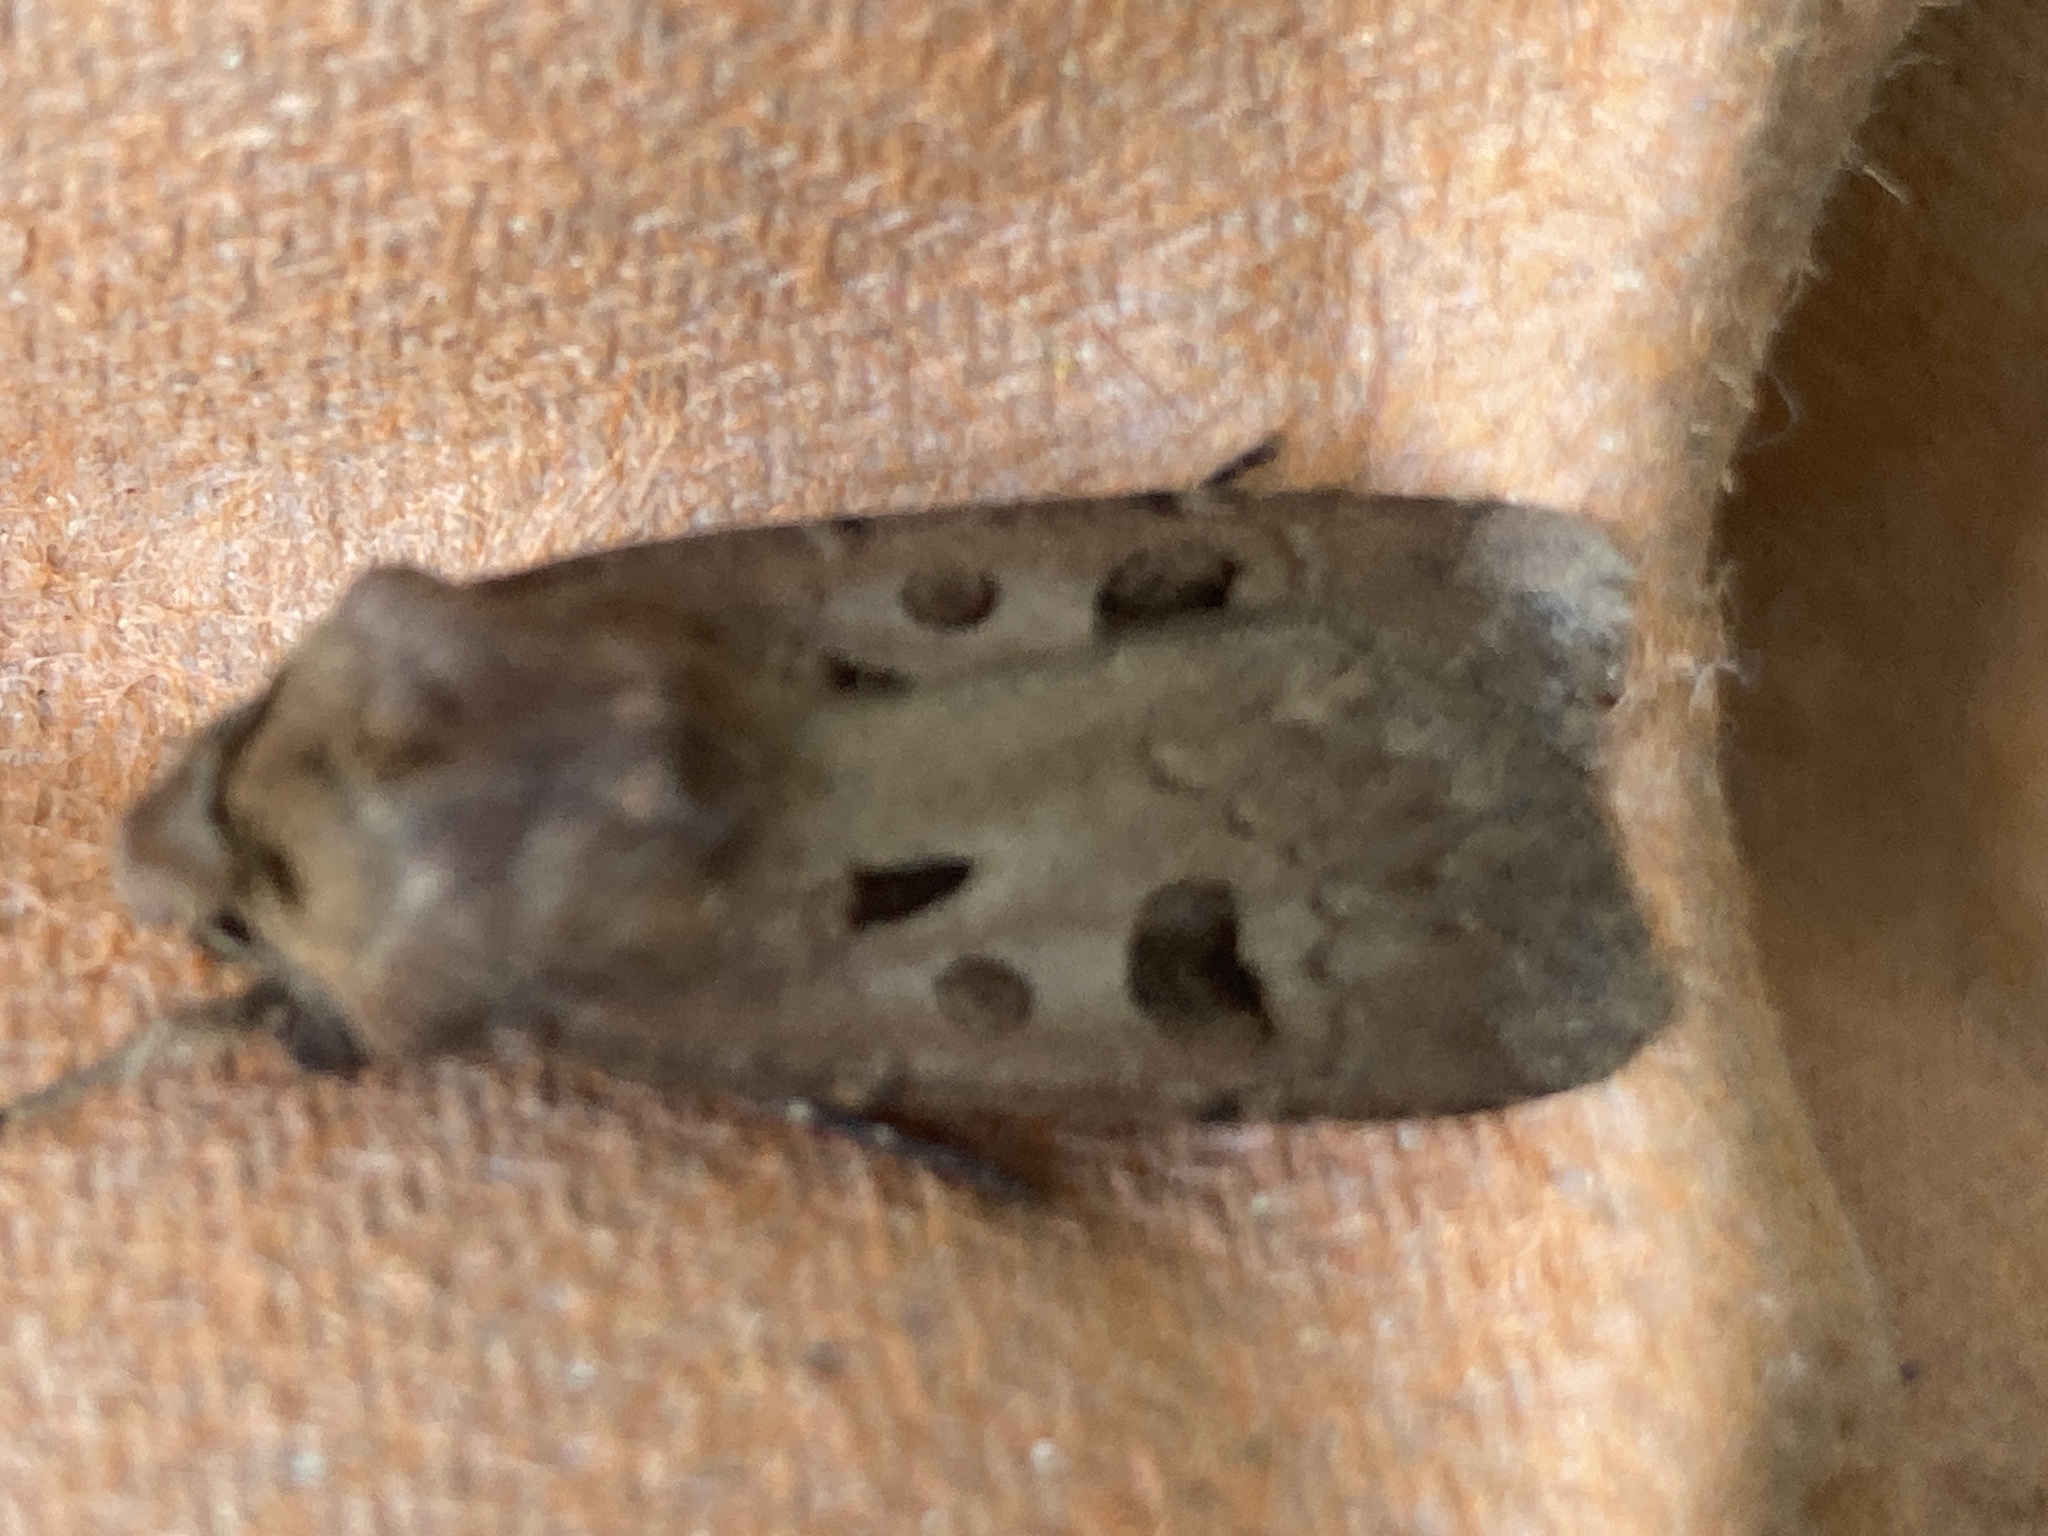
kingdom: Animalia
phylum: Arthropoda
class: Insecta
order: Lepidoptera
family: Noctuidae
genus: Agrotis
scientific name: Agrotis exclamationis
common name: Heart and dart
